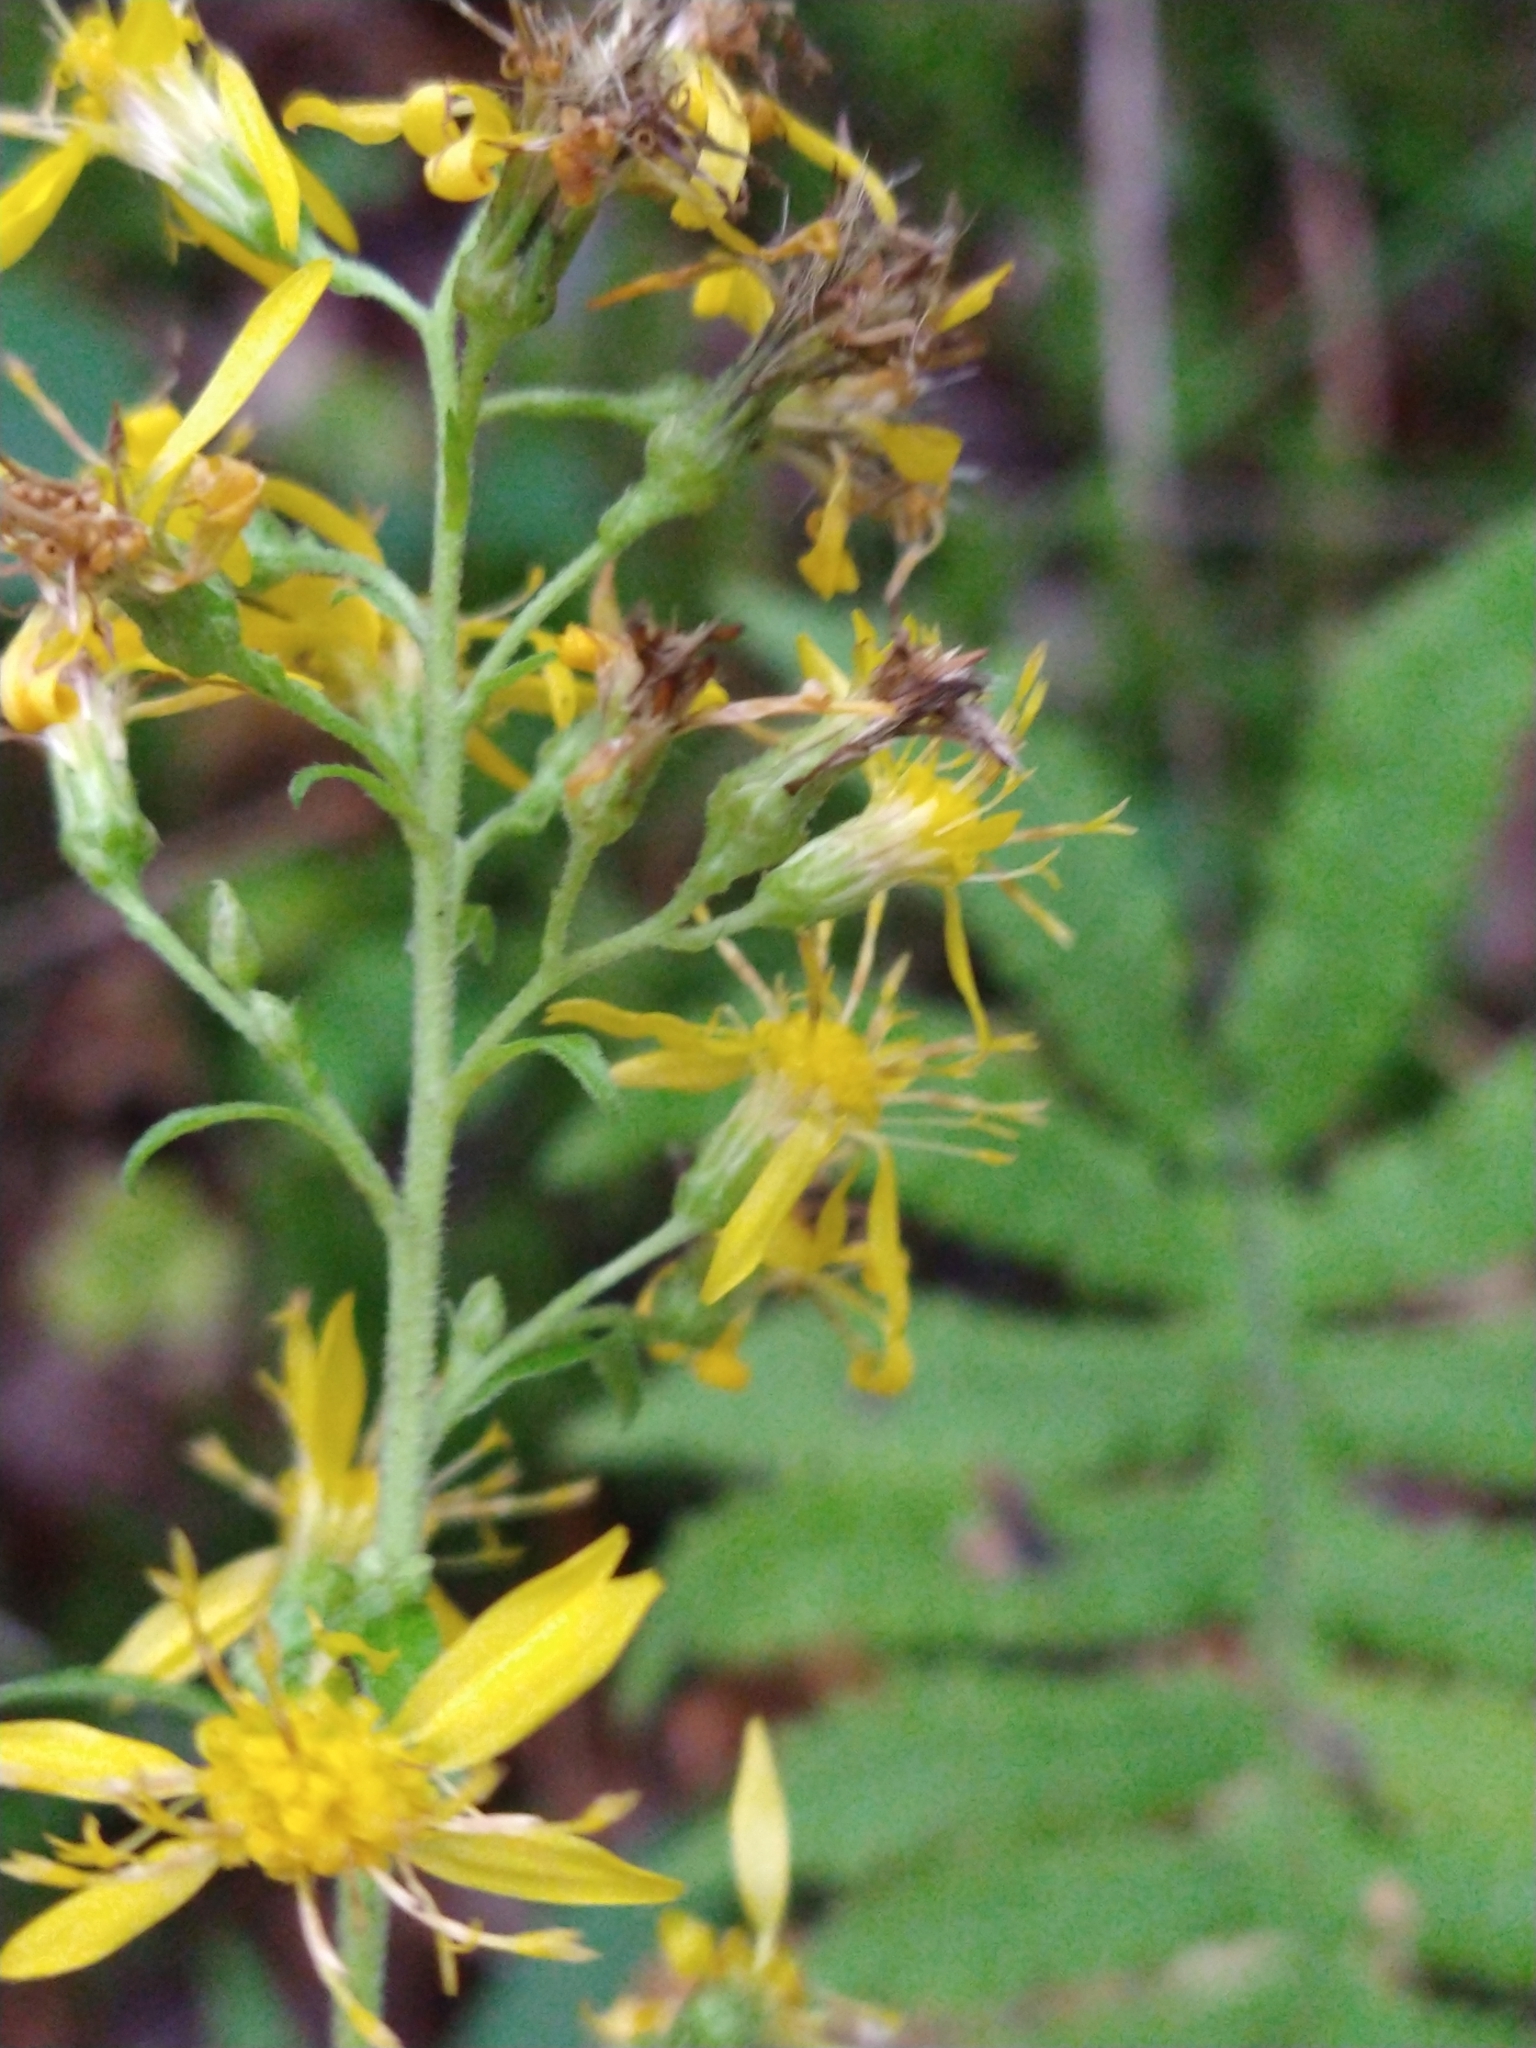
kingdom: Plantae
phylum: Tracheophyta
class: Magnoliopsida
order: Asterales
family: Asteraceae
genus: Solidago
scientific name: Solidago virgaurea
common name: Goldenrod
